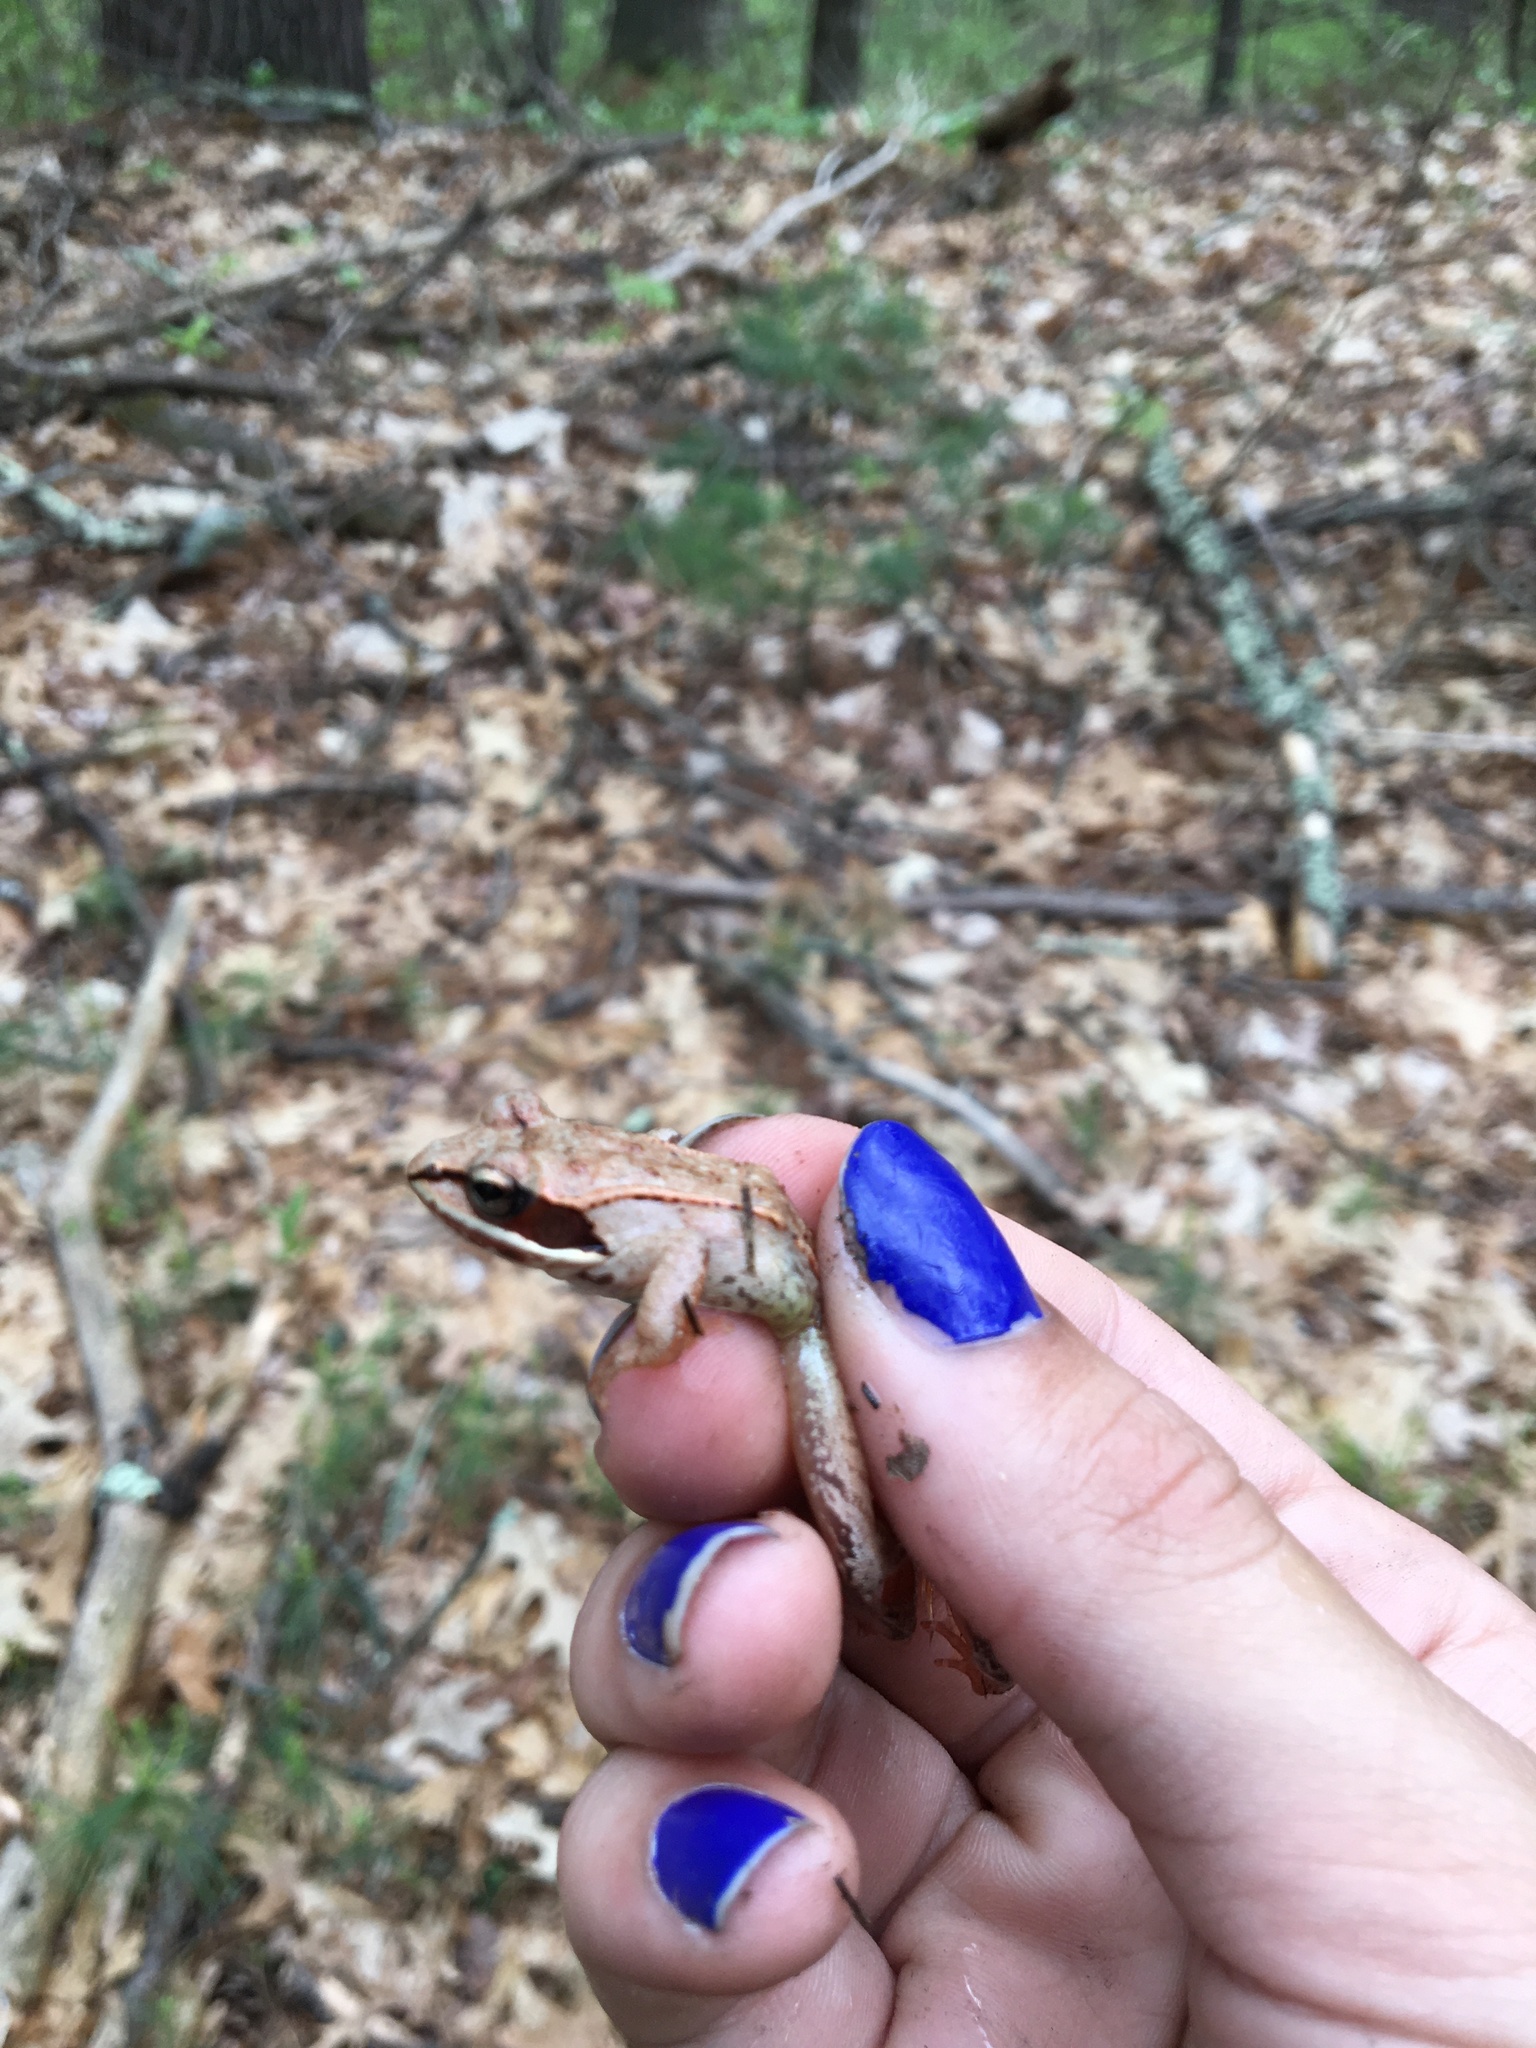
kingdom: Animalia
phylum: Chordata
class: Amphibia
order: Anura
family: Ranidae
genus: Lithobates
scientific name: Lithobates sylvaticus
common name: Wood frog
